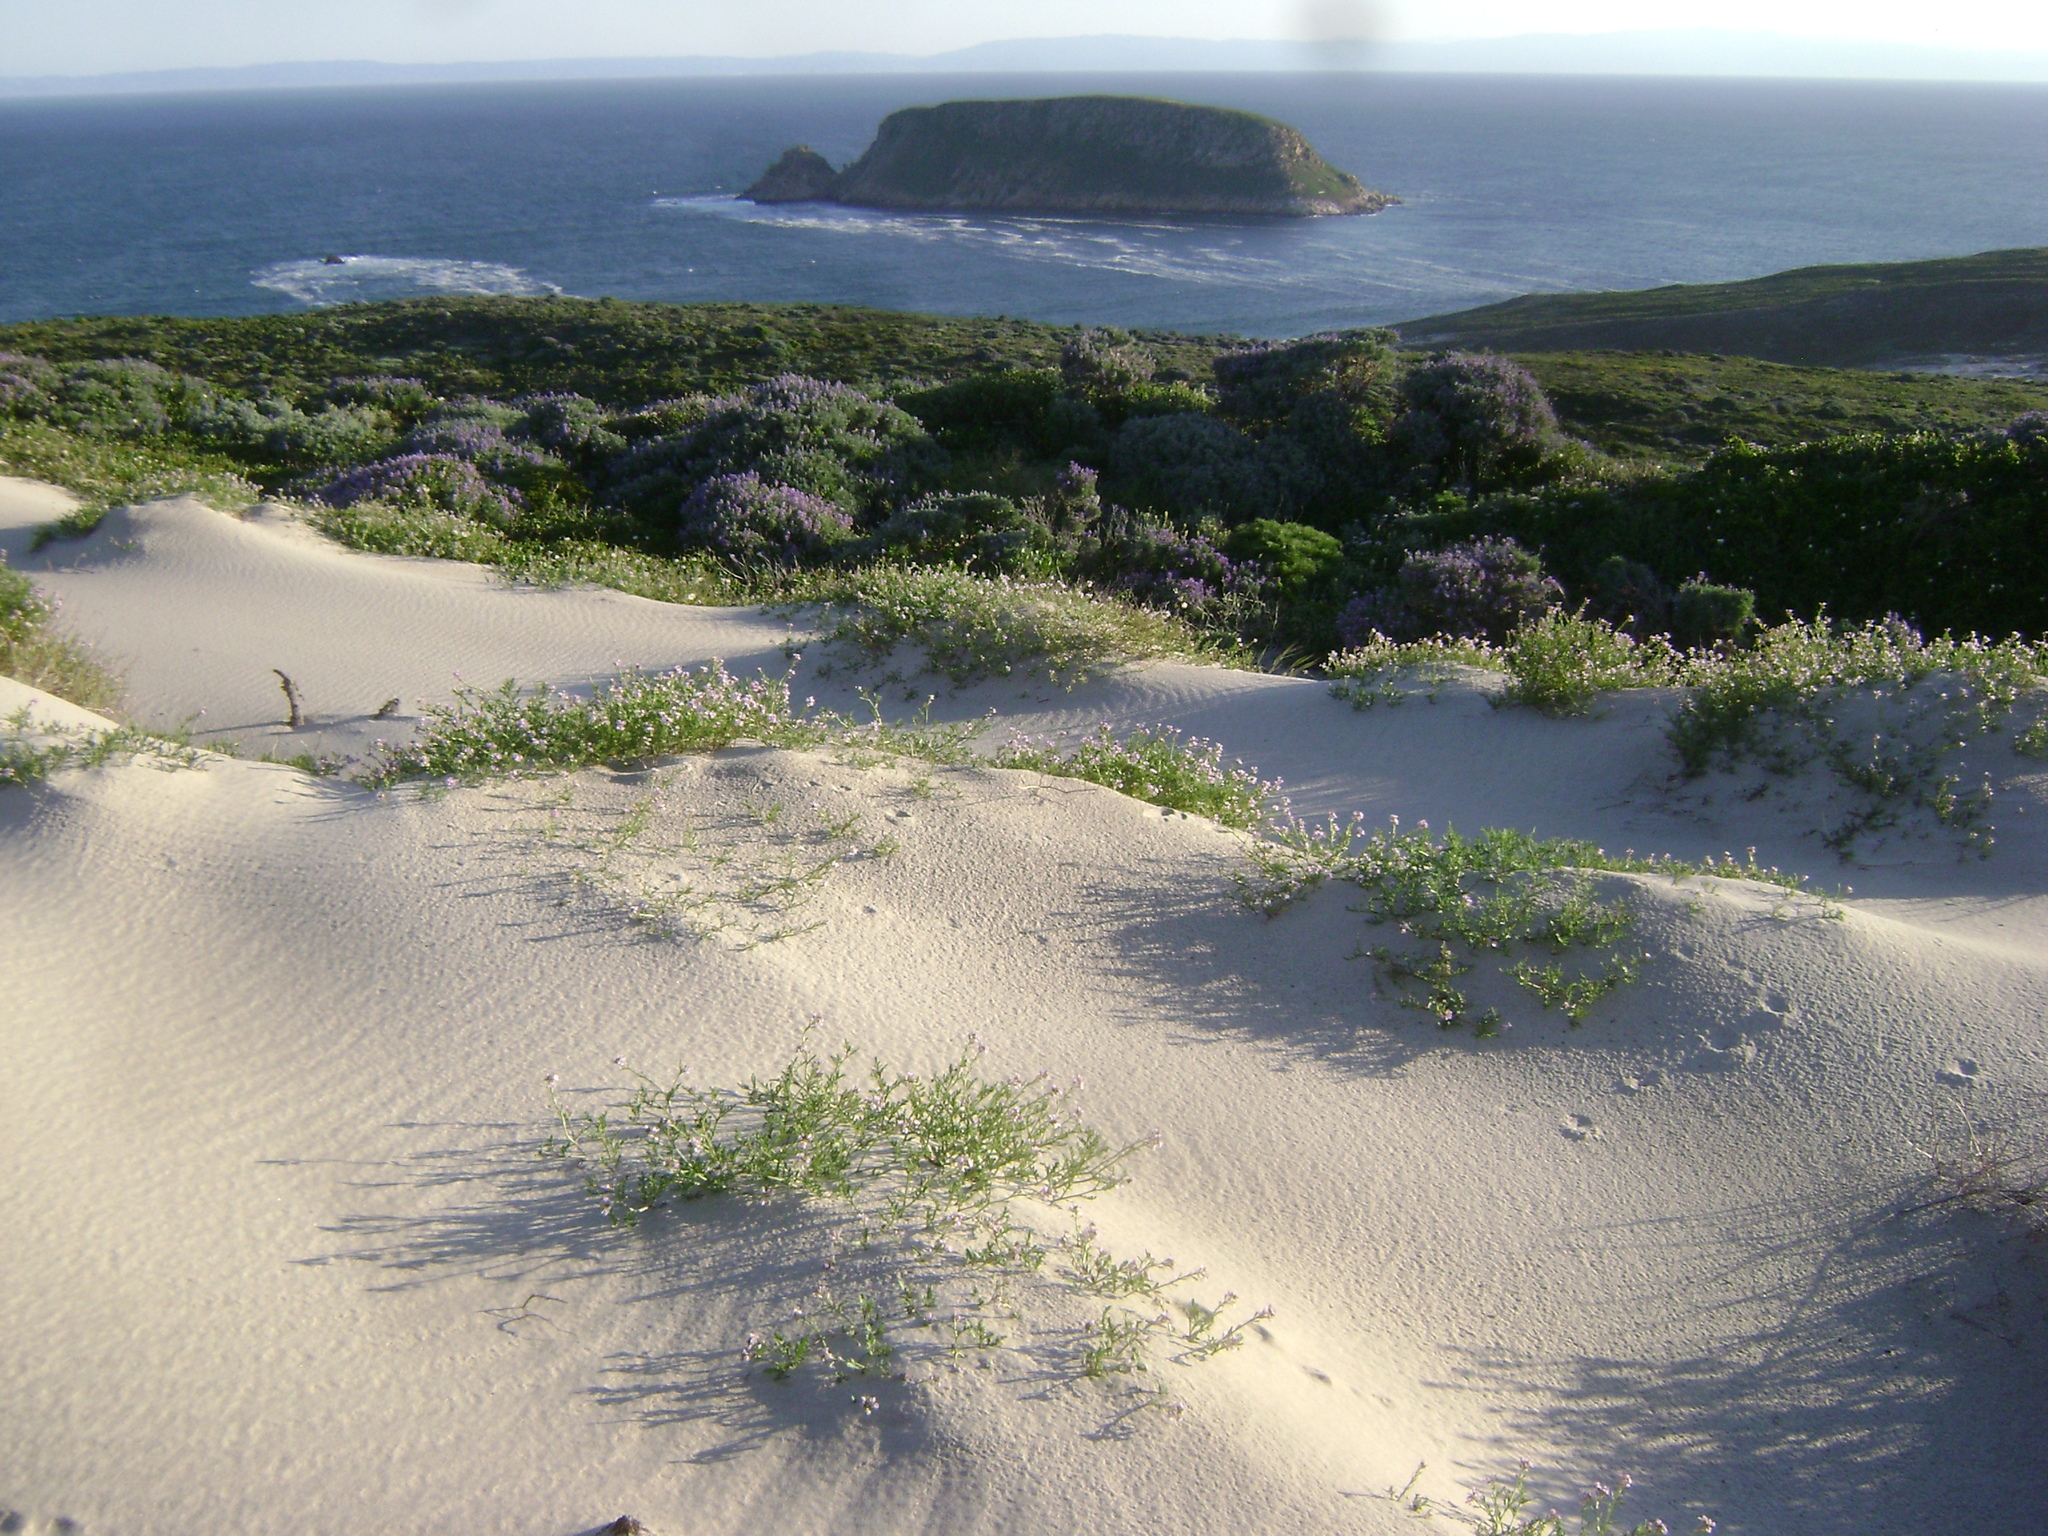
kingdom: Plantae
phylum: Tracheophyta
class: Magnoliopsida
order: Brassicales
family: Brassicaceae
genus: Cakile
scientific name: Cakile maritima
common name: Sea rocket
